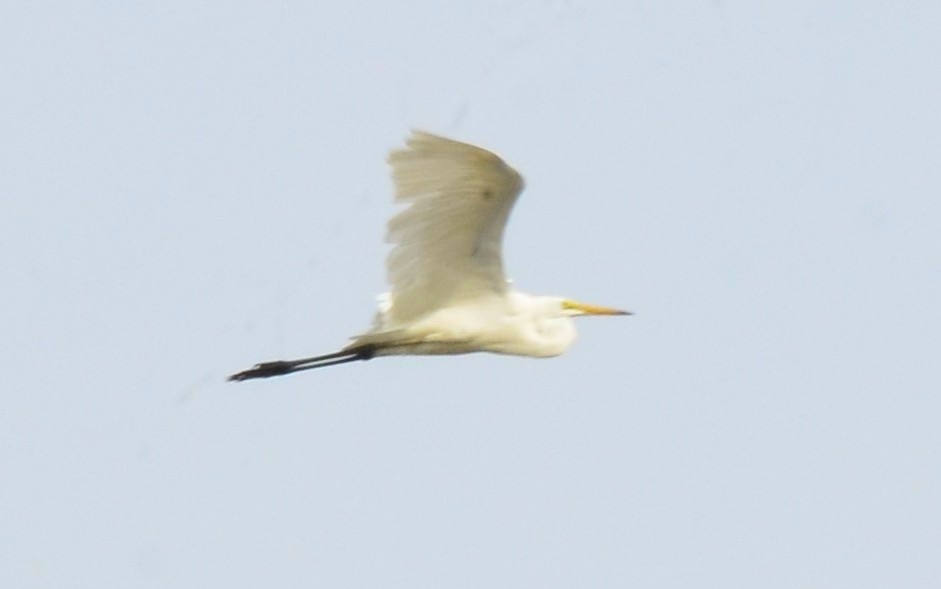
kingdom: Animalia
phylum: Chordata
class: Aves
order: Pelecaniformes
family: Ardeidae
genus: Ardea
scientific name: Ardea alba
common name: Great egret
